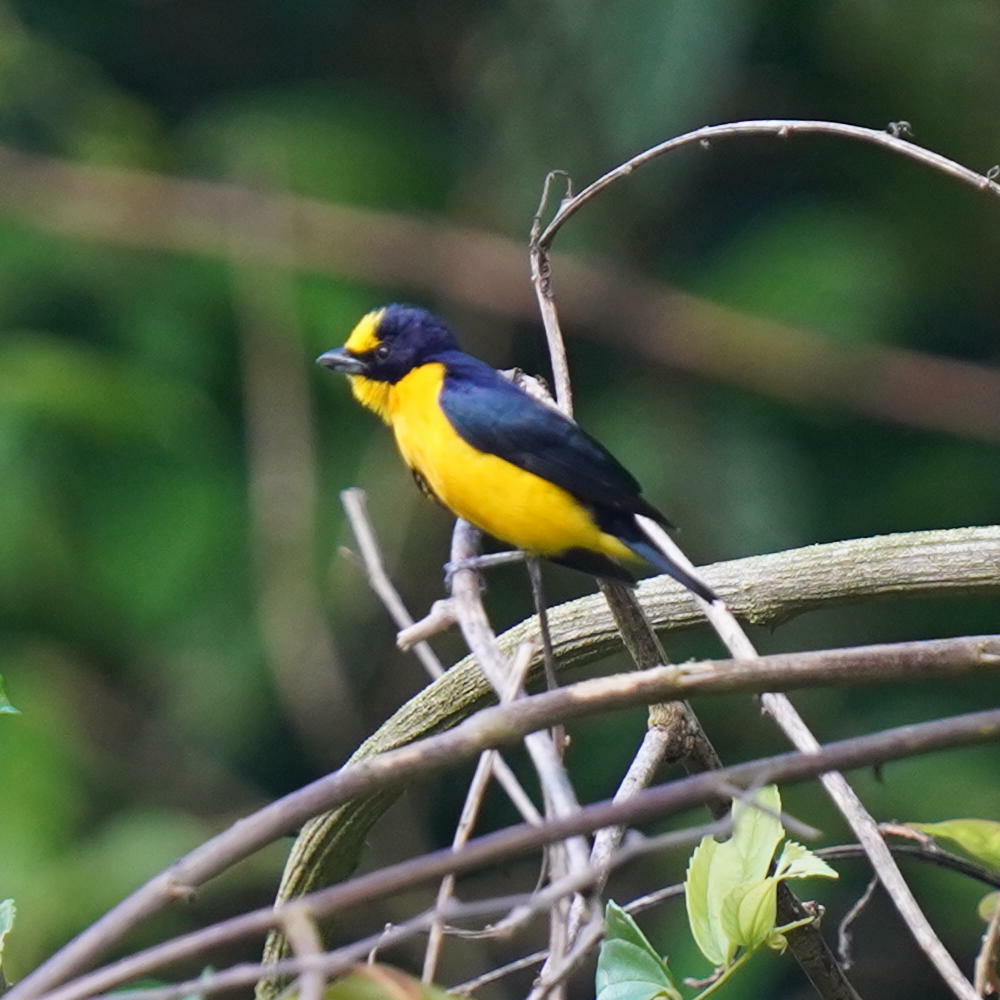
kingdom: Animalia
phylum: Chordata
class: Aves
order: Passeriformes
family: Fringillidae
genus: Euphonia
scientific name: Euphonia laniirostris
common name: Thick-billed euphonia
